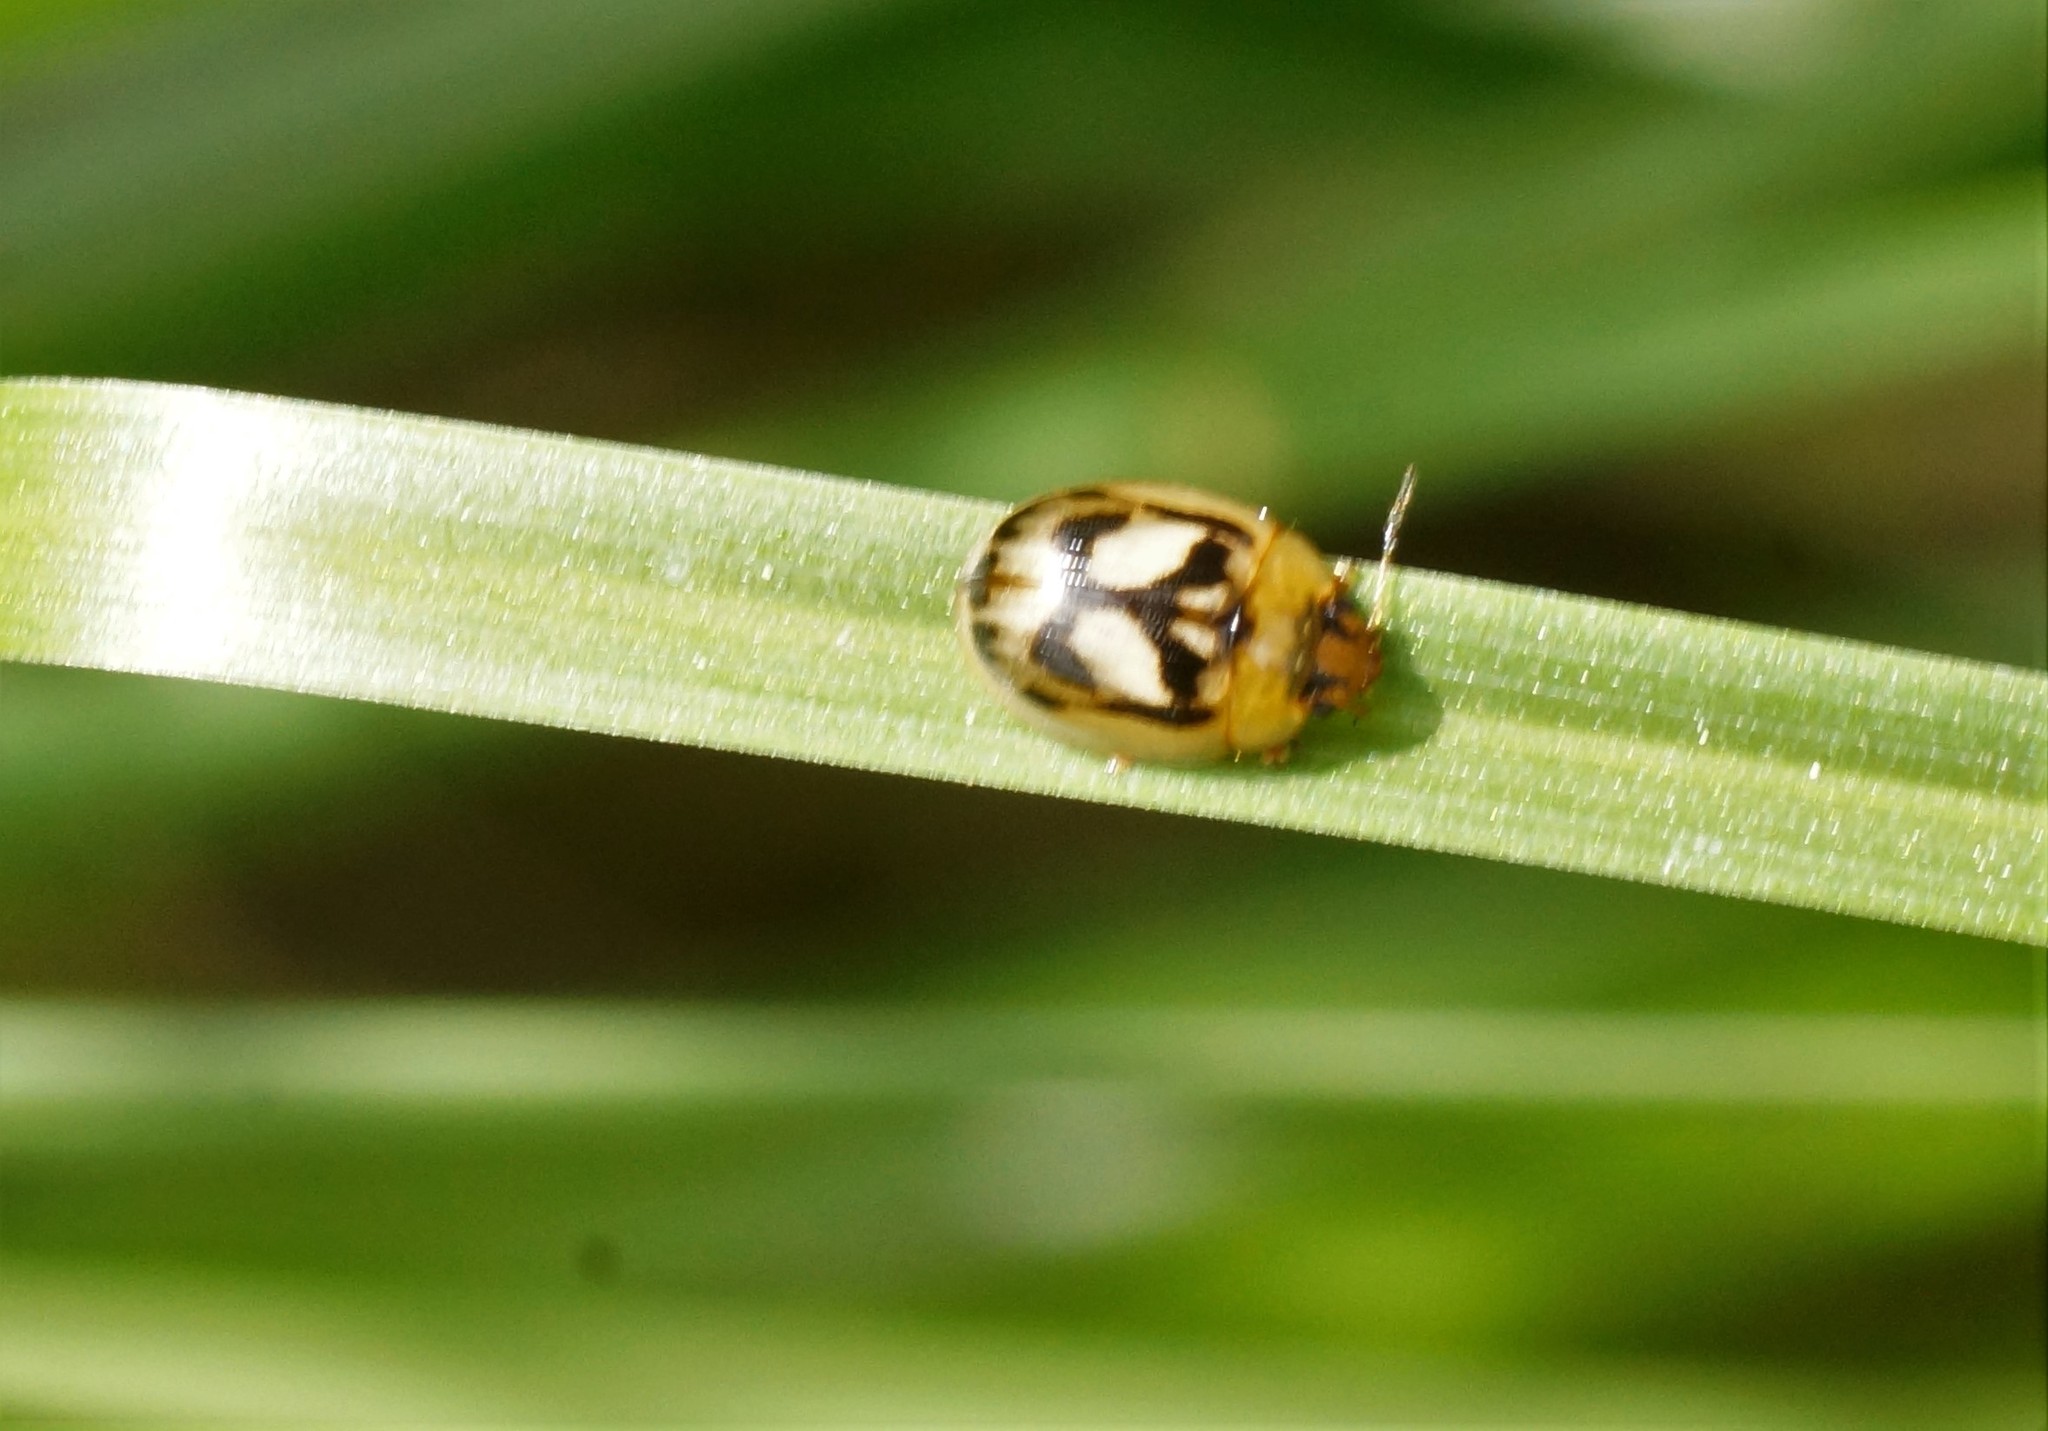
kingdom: Animalia
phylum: Arthropoda
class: Insecta
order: Coleoptera
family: Chrysomelidae
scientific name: Chrysomelidae
